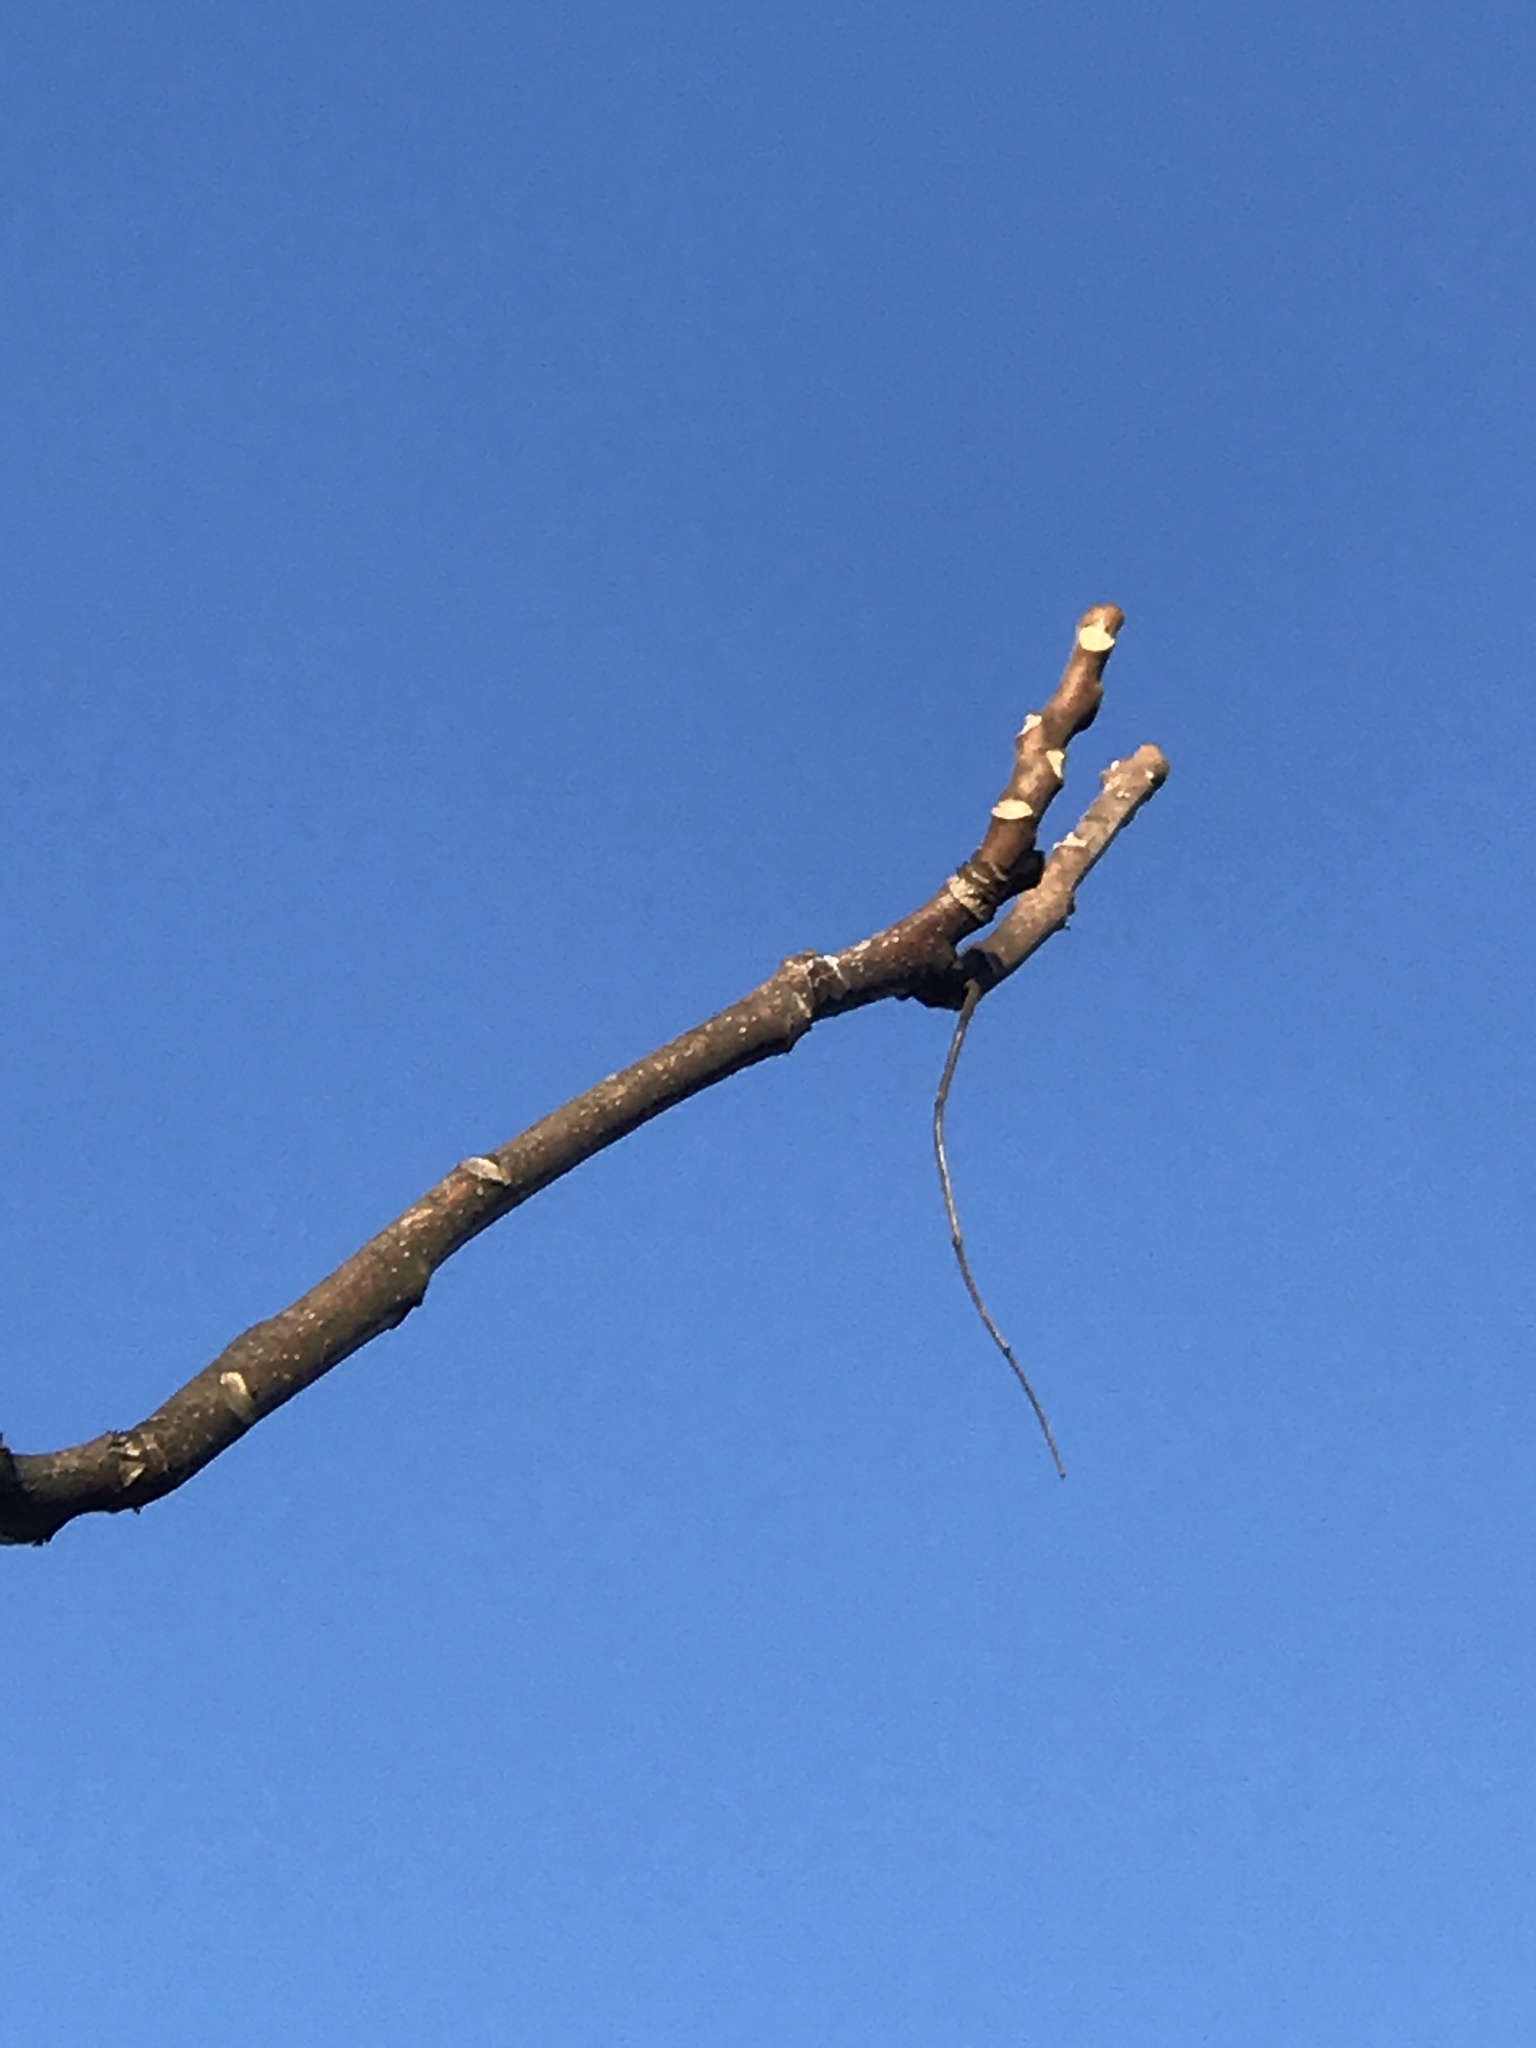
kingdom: Plantae
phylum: Tracheophyta
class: Magnoliopsida
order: Sapindales
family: Simaroubaceae
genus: Ailanthus
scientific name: Ailanthus altissima
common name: Tree-of-heaven
